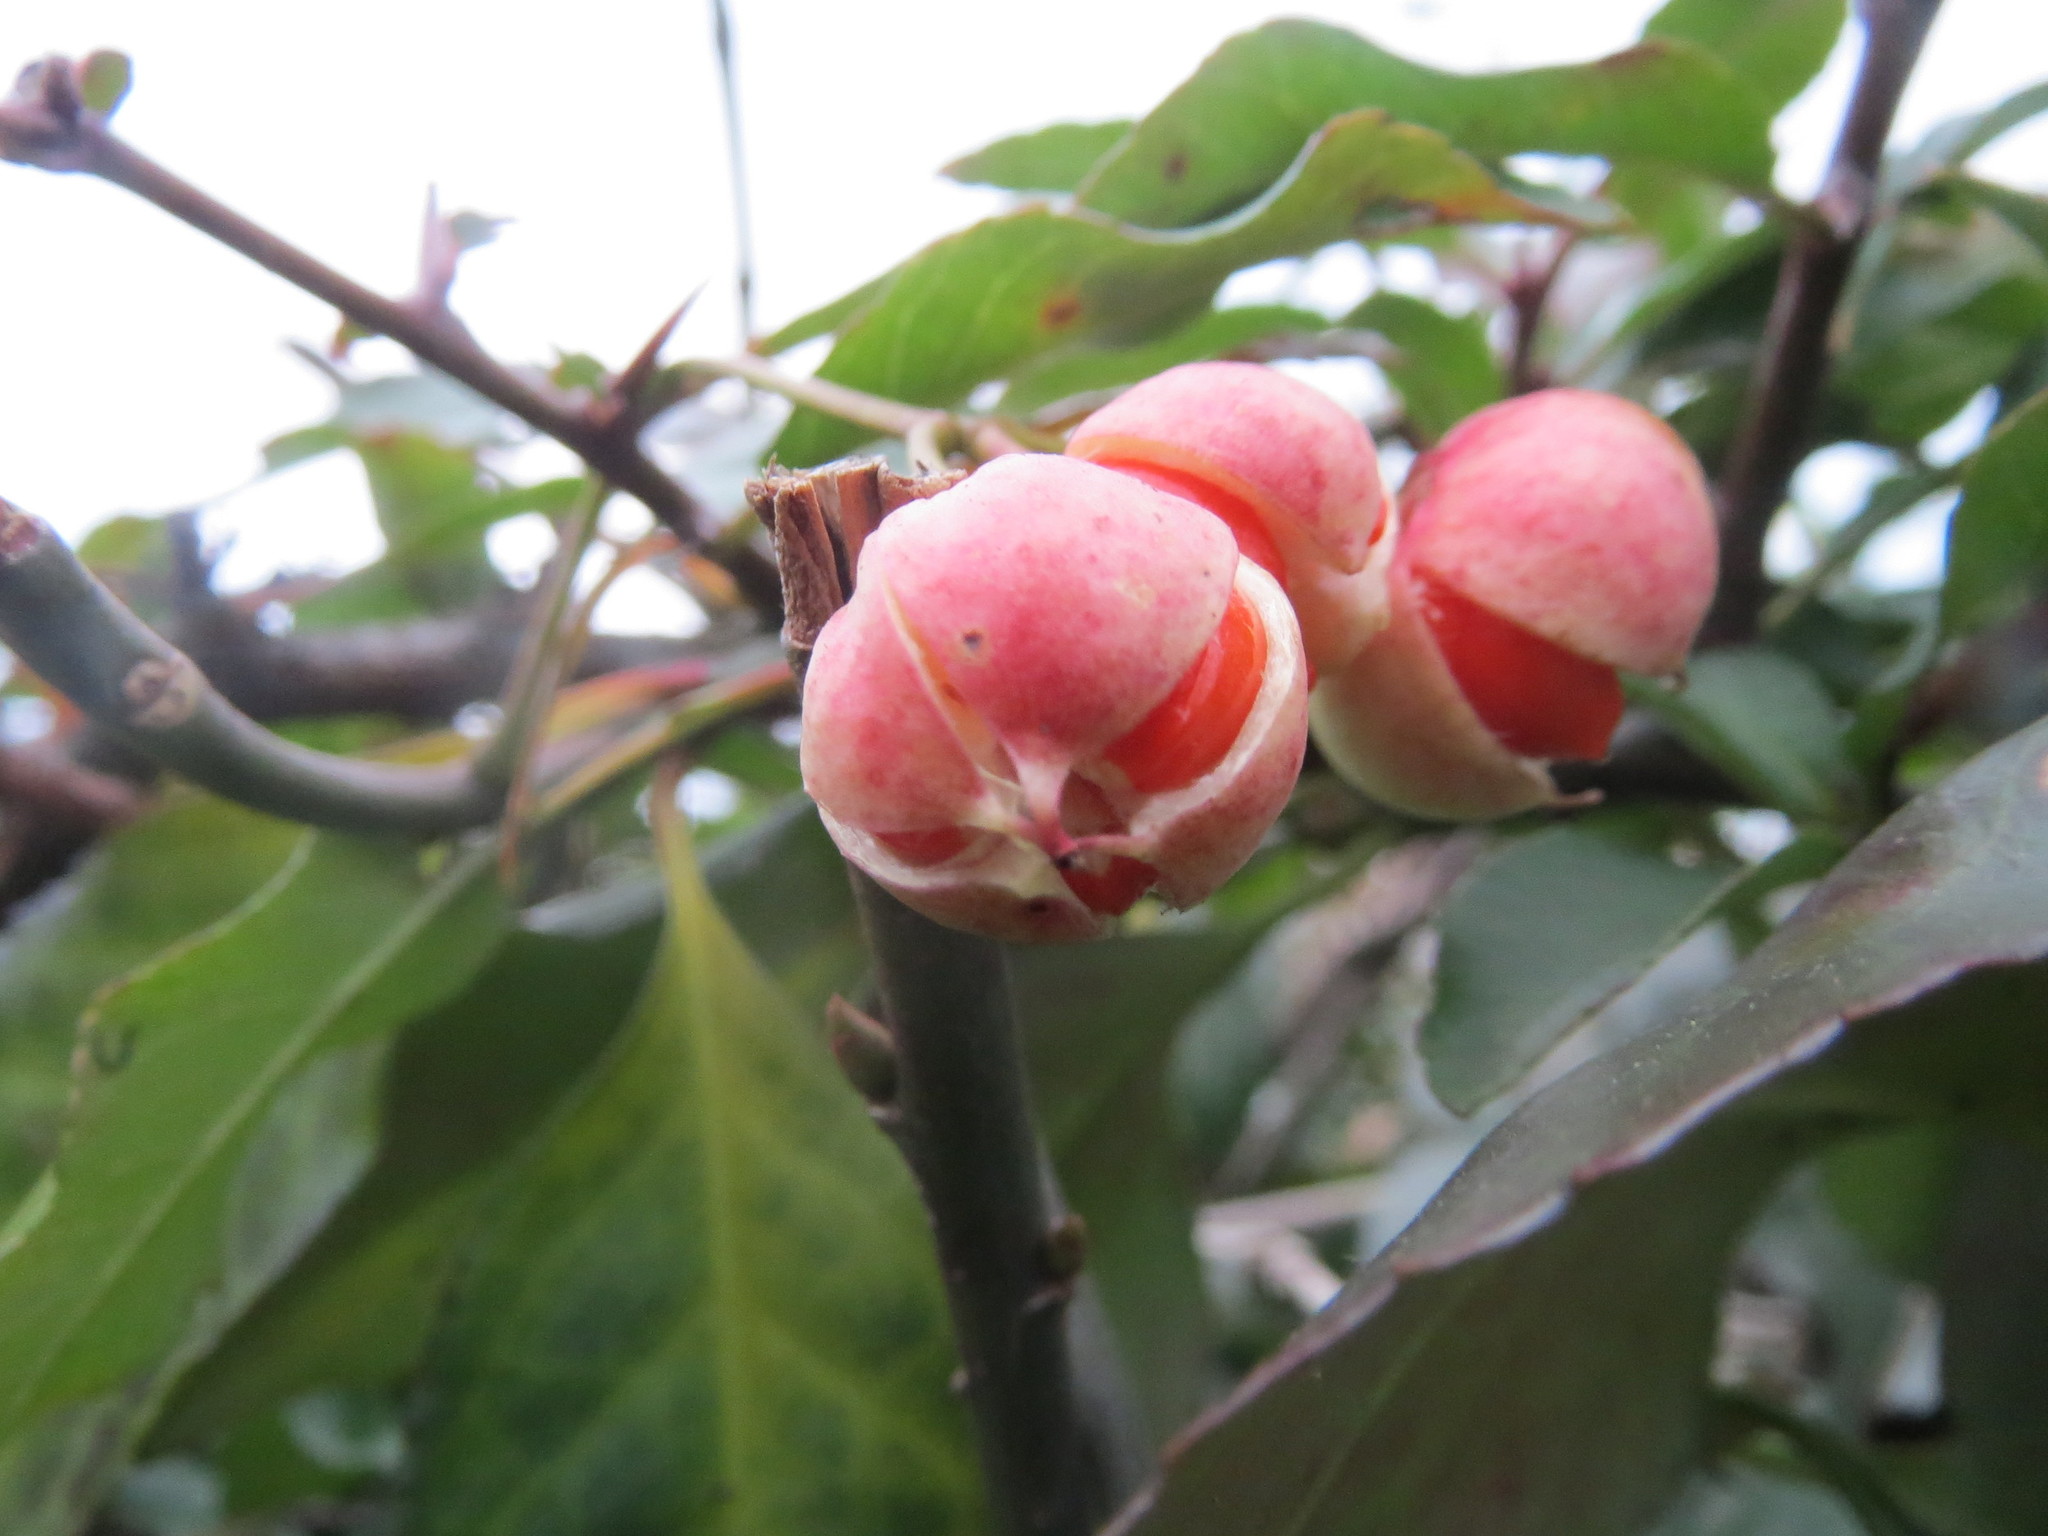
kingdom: Plantae
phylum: Tracheophyta
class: Magnoliopsida
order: Celastrales
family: Celastraceae
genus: Euonymus
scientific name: Euonymus japonicus
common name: Japanese spindletree
